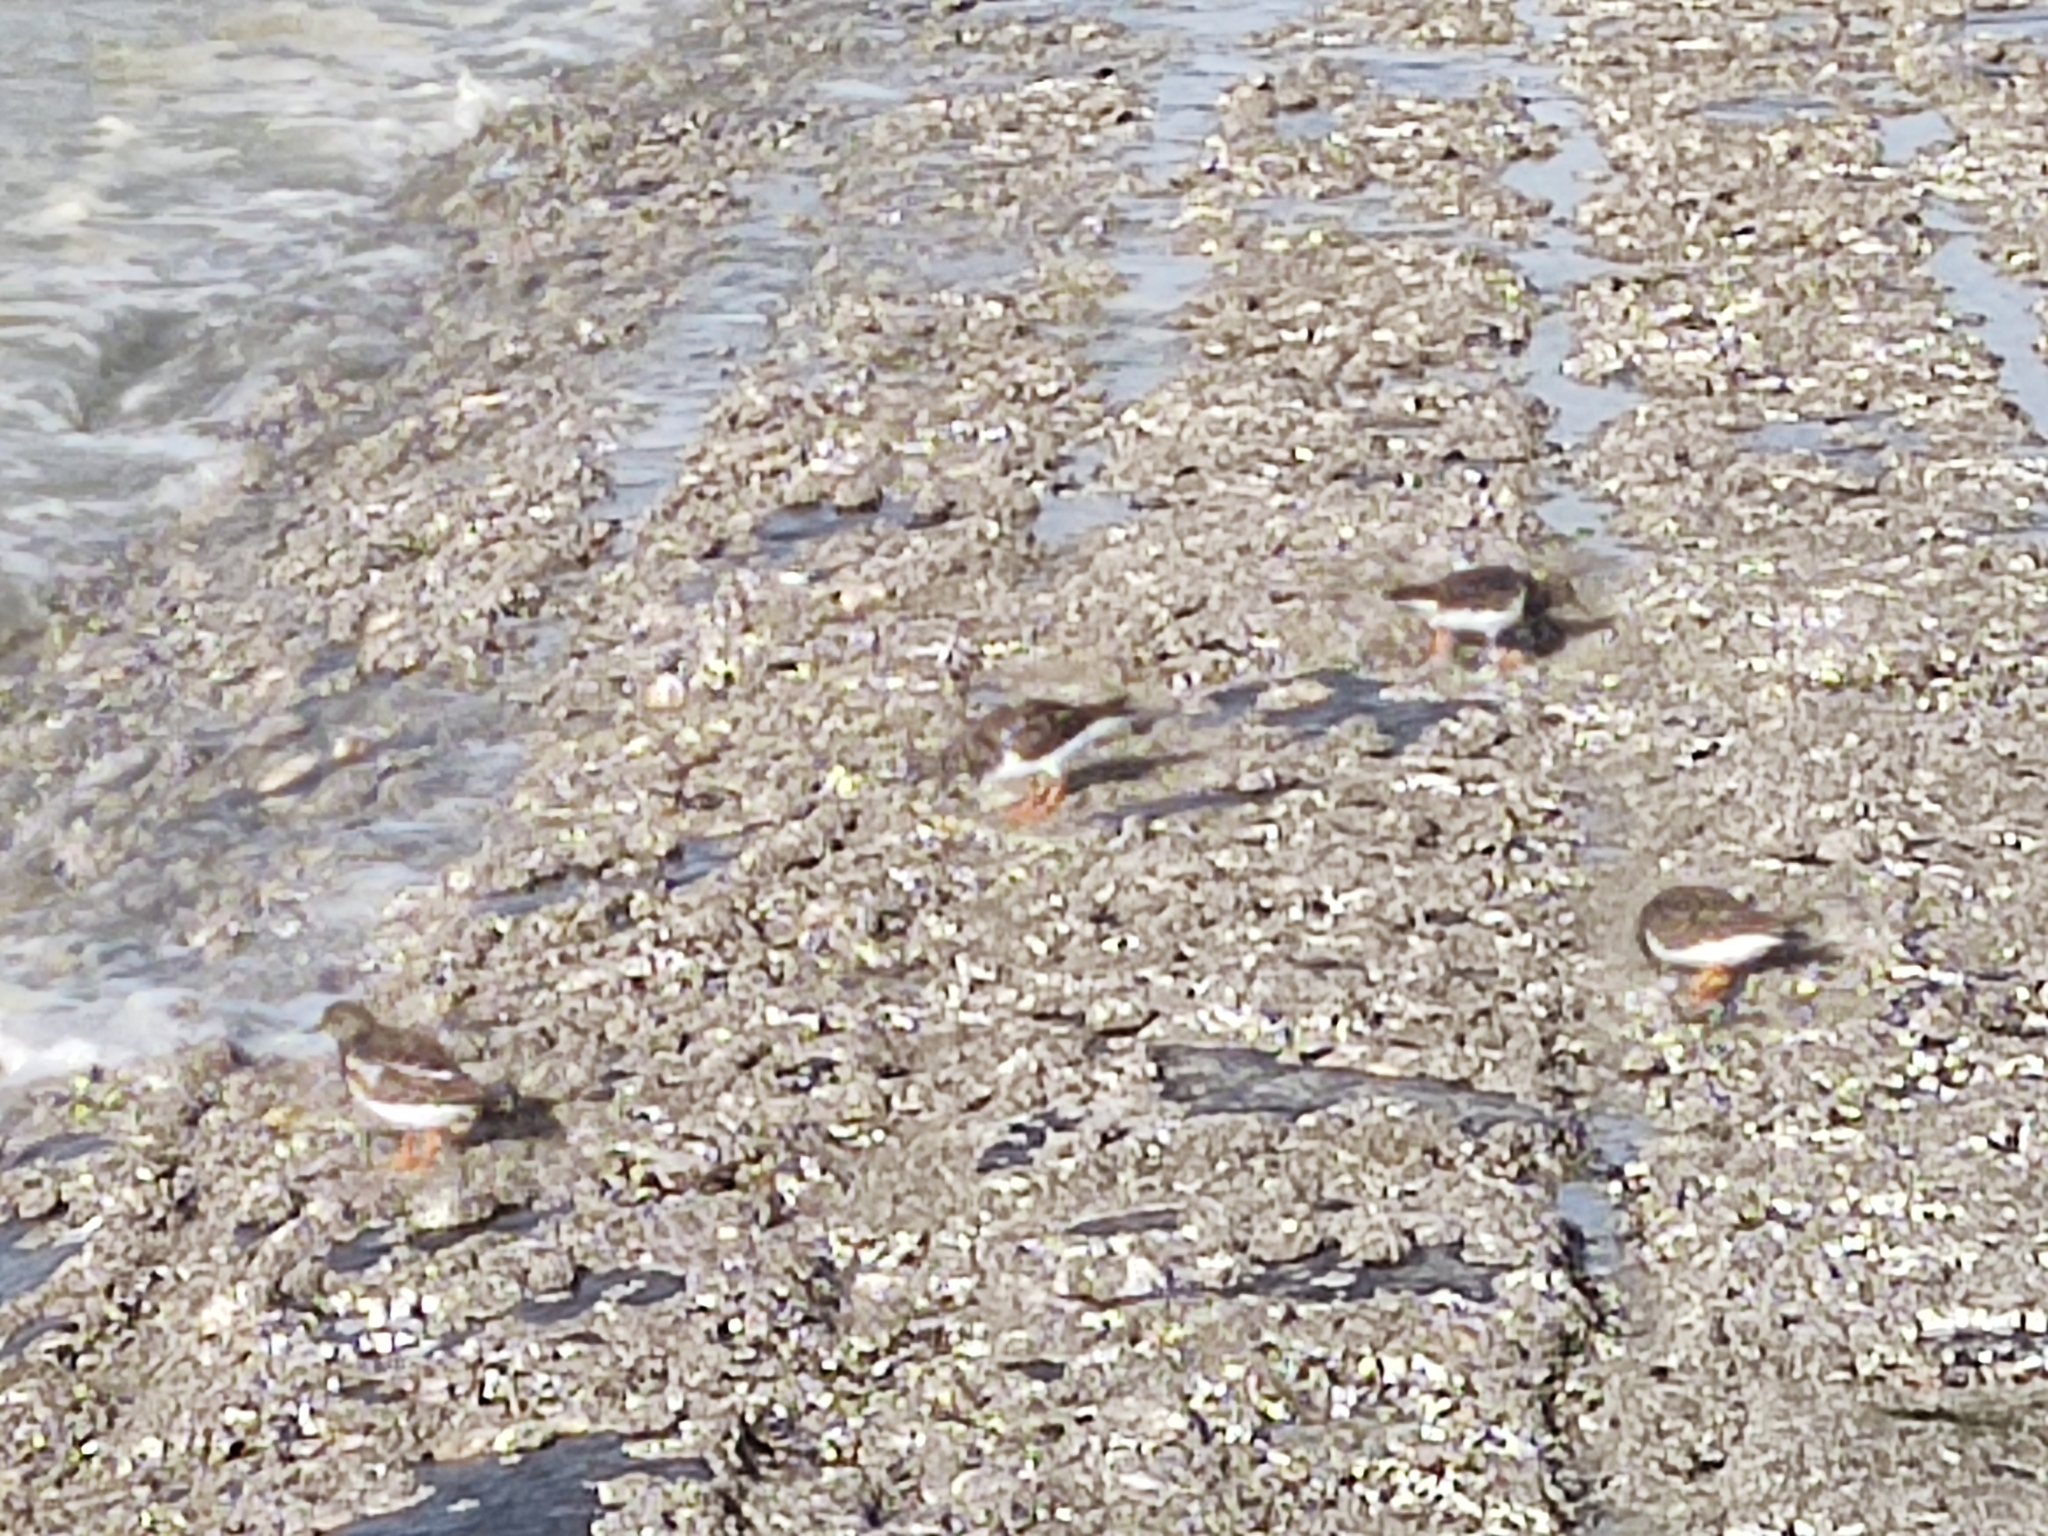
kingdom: Animalia
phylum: Chordata
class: Aves
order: Charadriiformes
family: Scolopacidae
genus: Arenaria
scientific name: Arenaria interpres
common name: Ruddy turnstone
